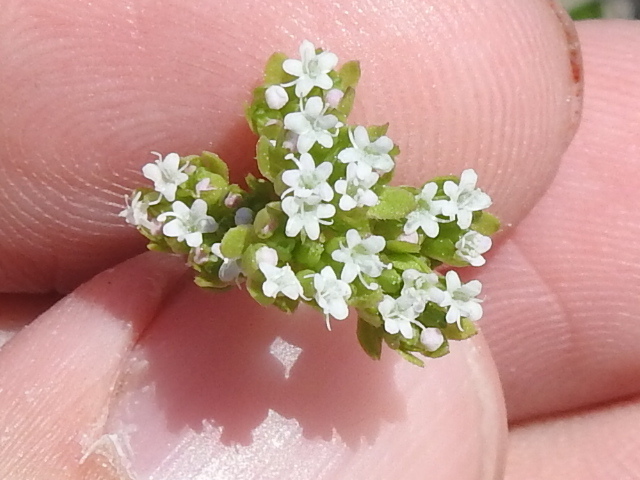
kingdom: Plantae
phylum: Tracheophyta
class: Magnoliopsida
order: Dipsacales
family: Caprifoliaceae
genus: Valerianella
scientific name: Valerianella radiata
